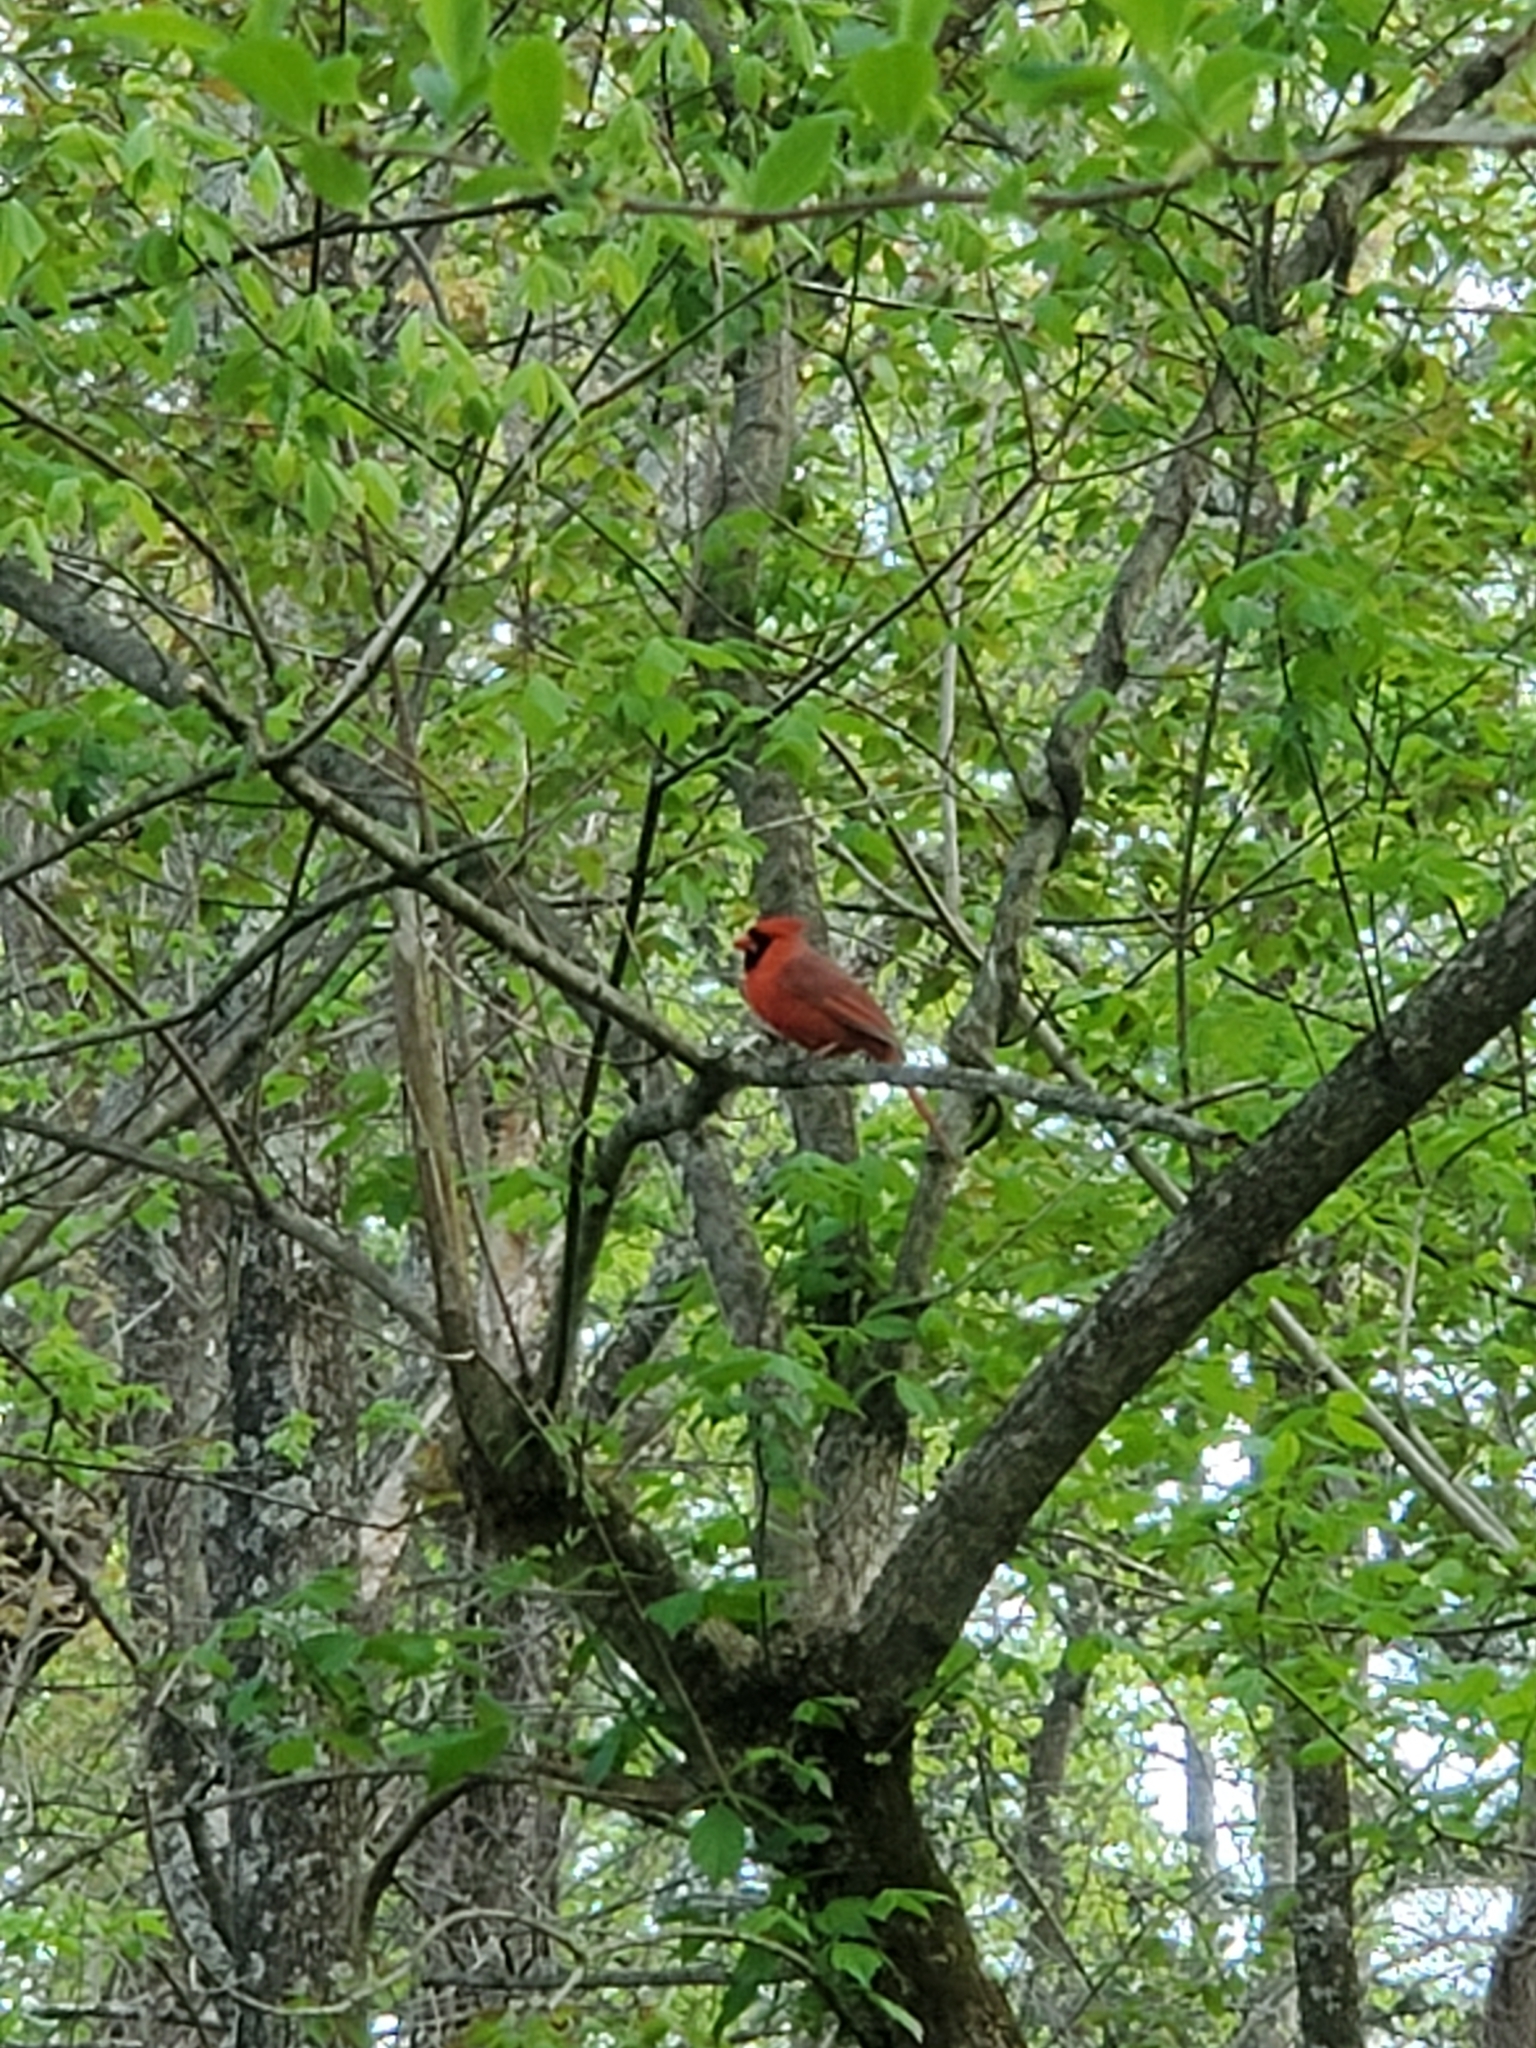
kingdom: Animalia
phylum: Chordata
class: Aves
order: Passeriformes
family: Cardinalidae
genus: Cardinalis
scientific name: Cardinalis cardinalis
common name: Northern cardinal
